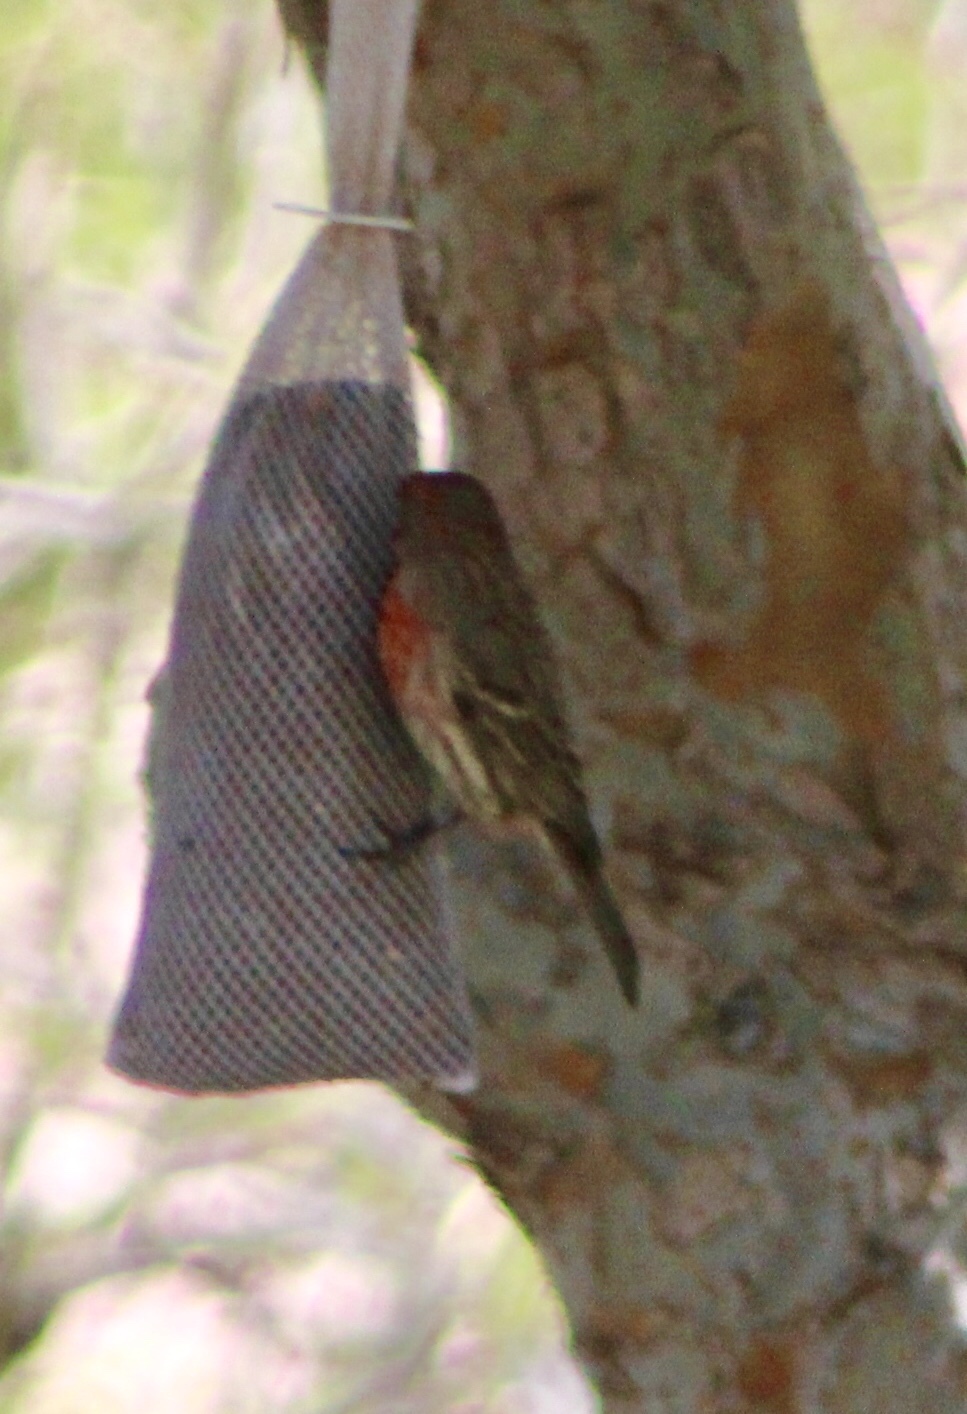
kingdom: Animalia
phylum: Chordata
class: Aves
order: Passeriformes
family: Fringillidae
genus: Haemorhous
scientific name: Haemorhous mexicanus
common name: House finch
